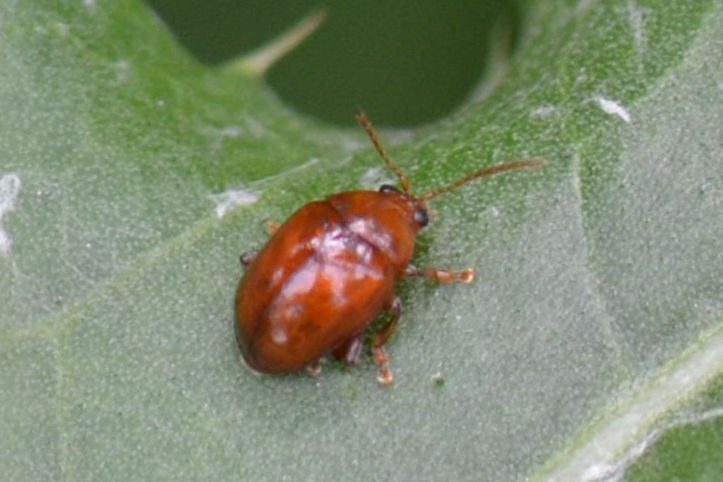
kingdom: Animalia
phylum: Arthropoda
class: Insecta
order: Coleoptera
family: Chrysomelidae
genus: Pistosia
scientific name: Pistosia testacea
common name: Leaf beetle
